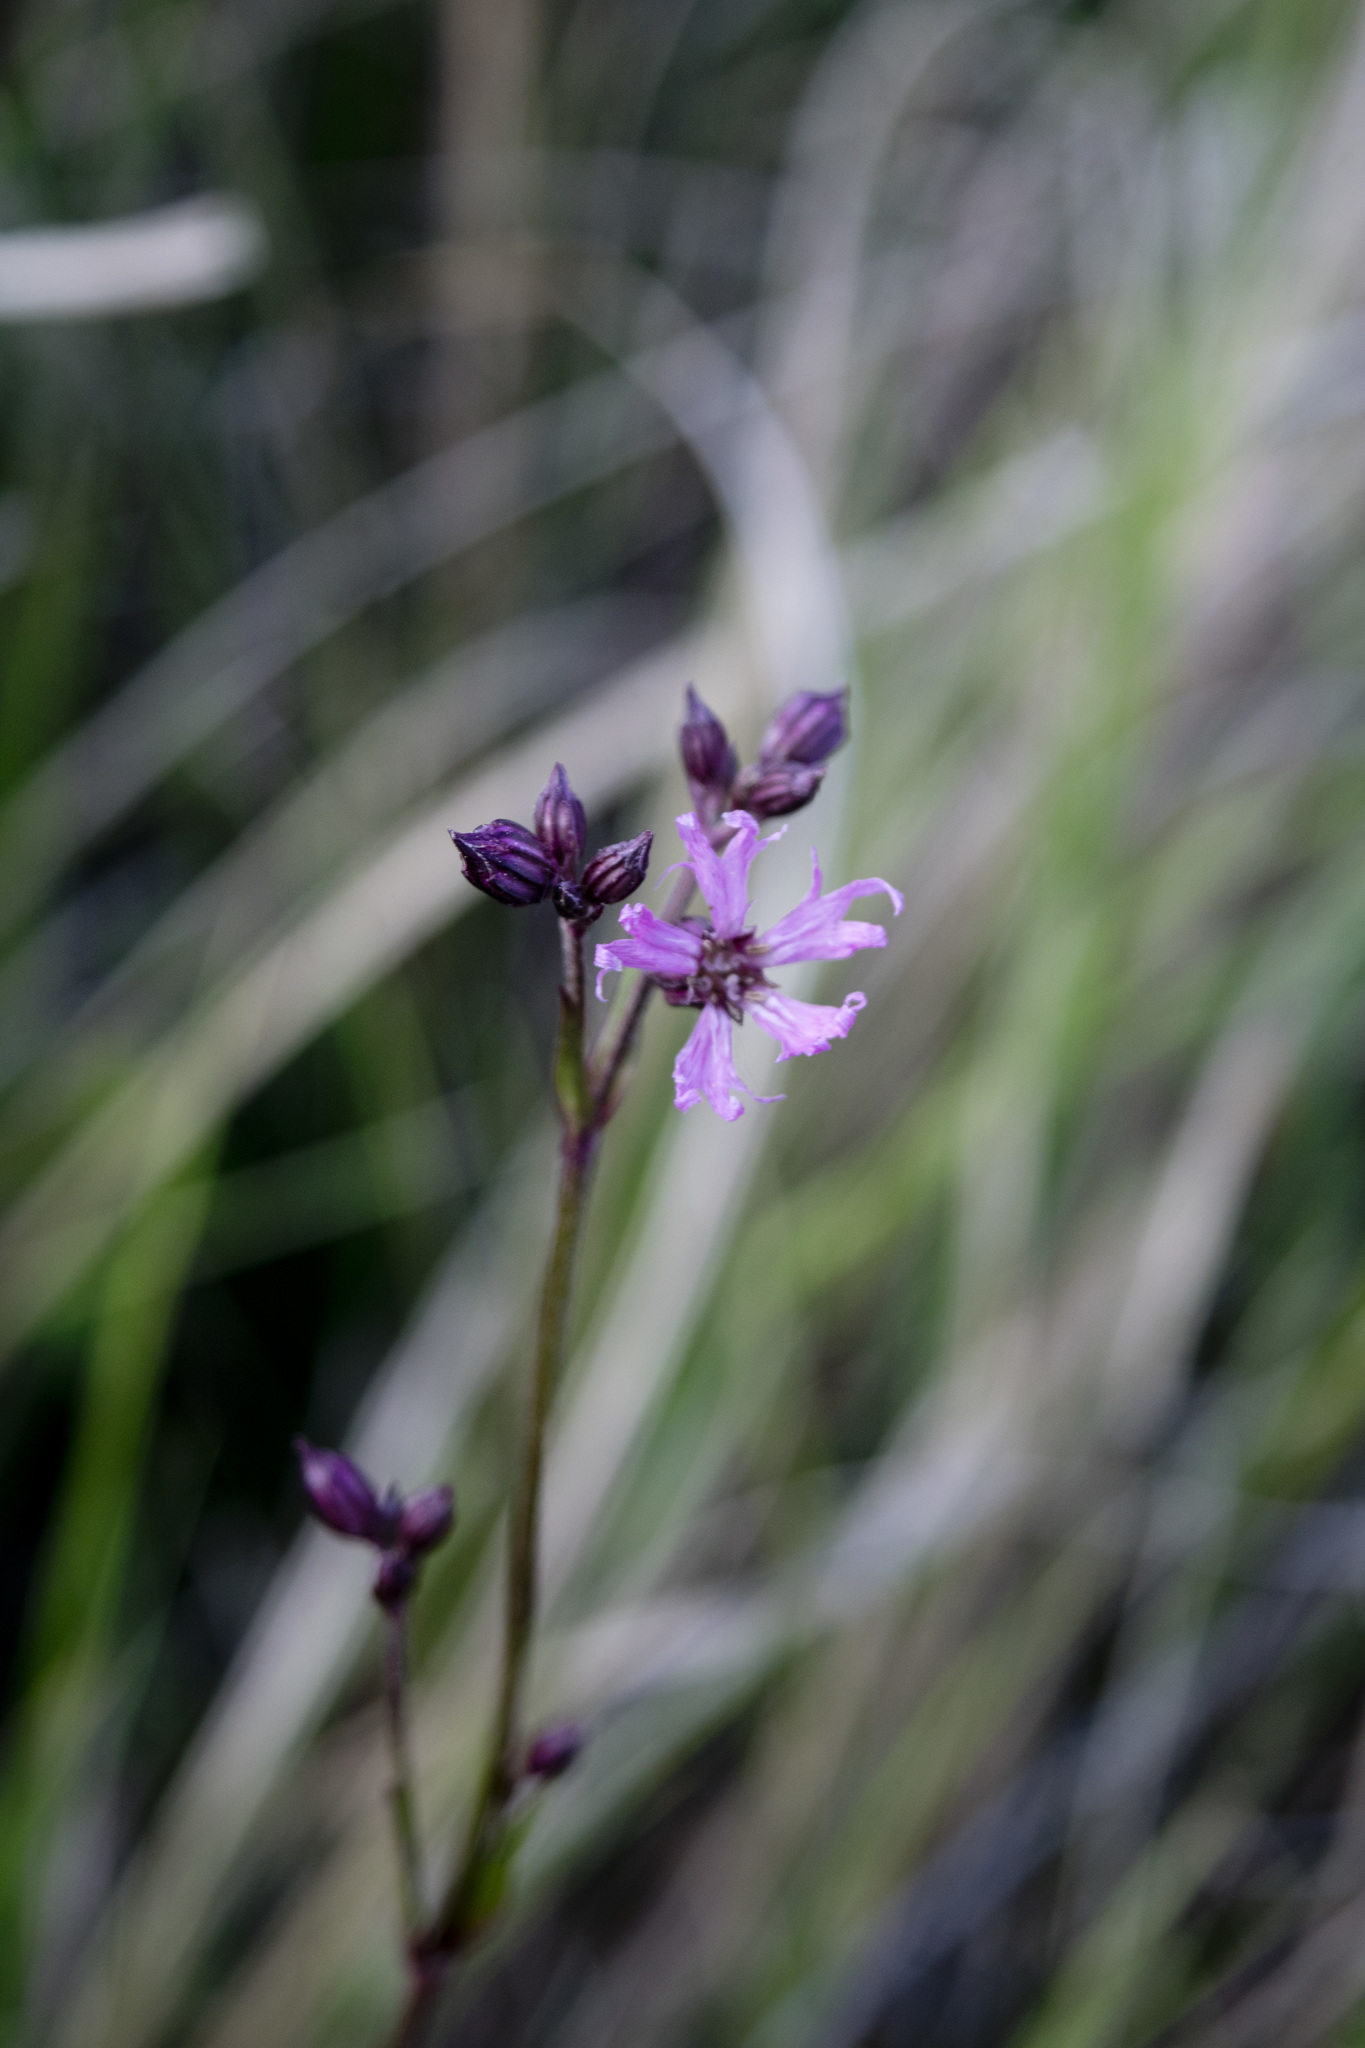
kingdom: Plantae
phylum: Tracheophyta
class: Magnoliopsida
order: Caryophyllales
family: Caryophyllaceae
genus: Silene
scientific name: Silene flos-cuculi
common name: Ragged-robin
